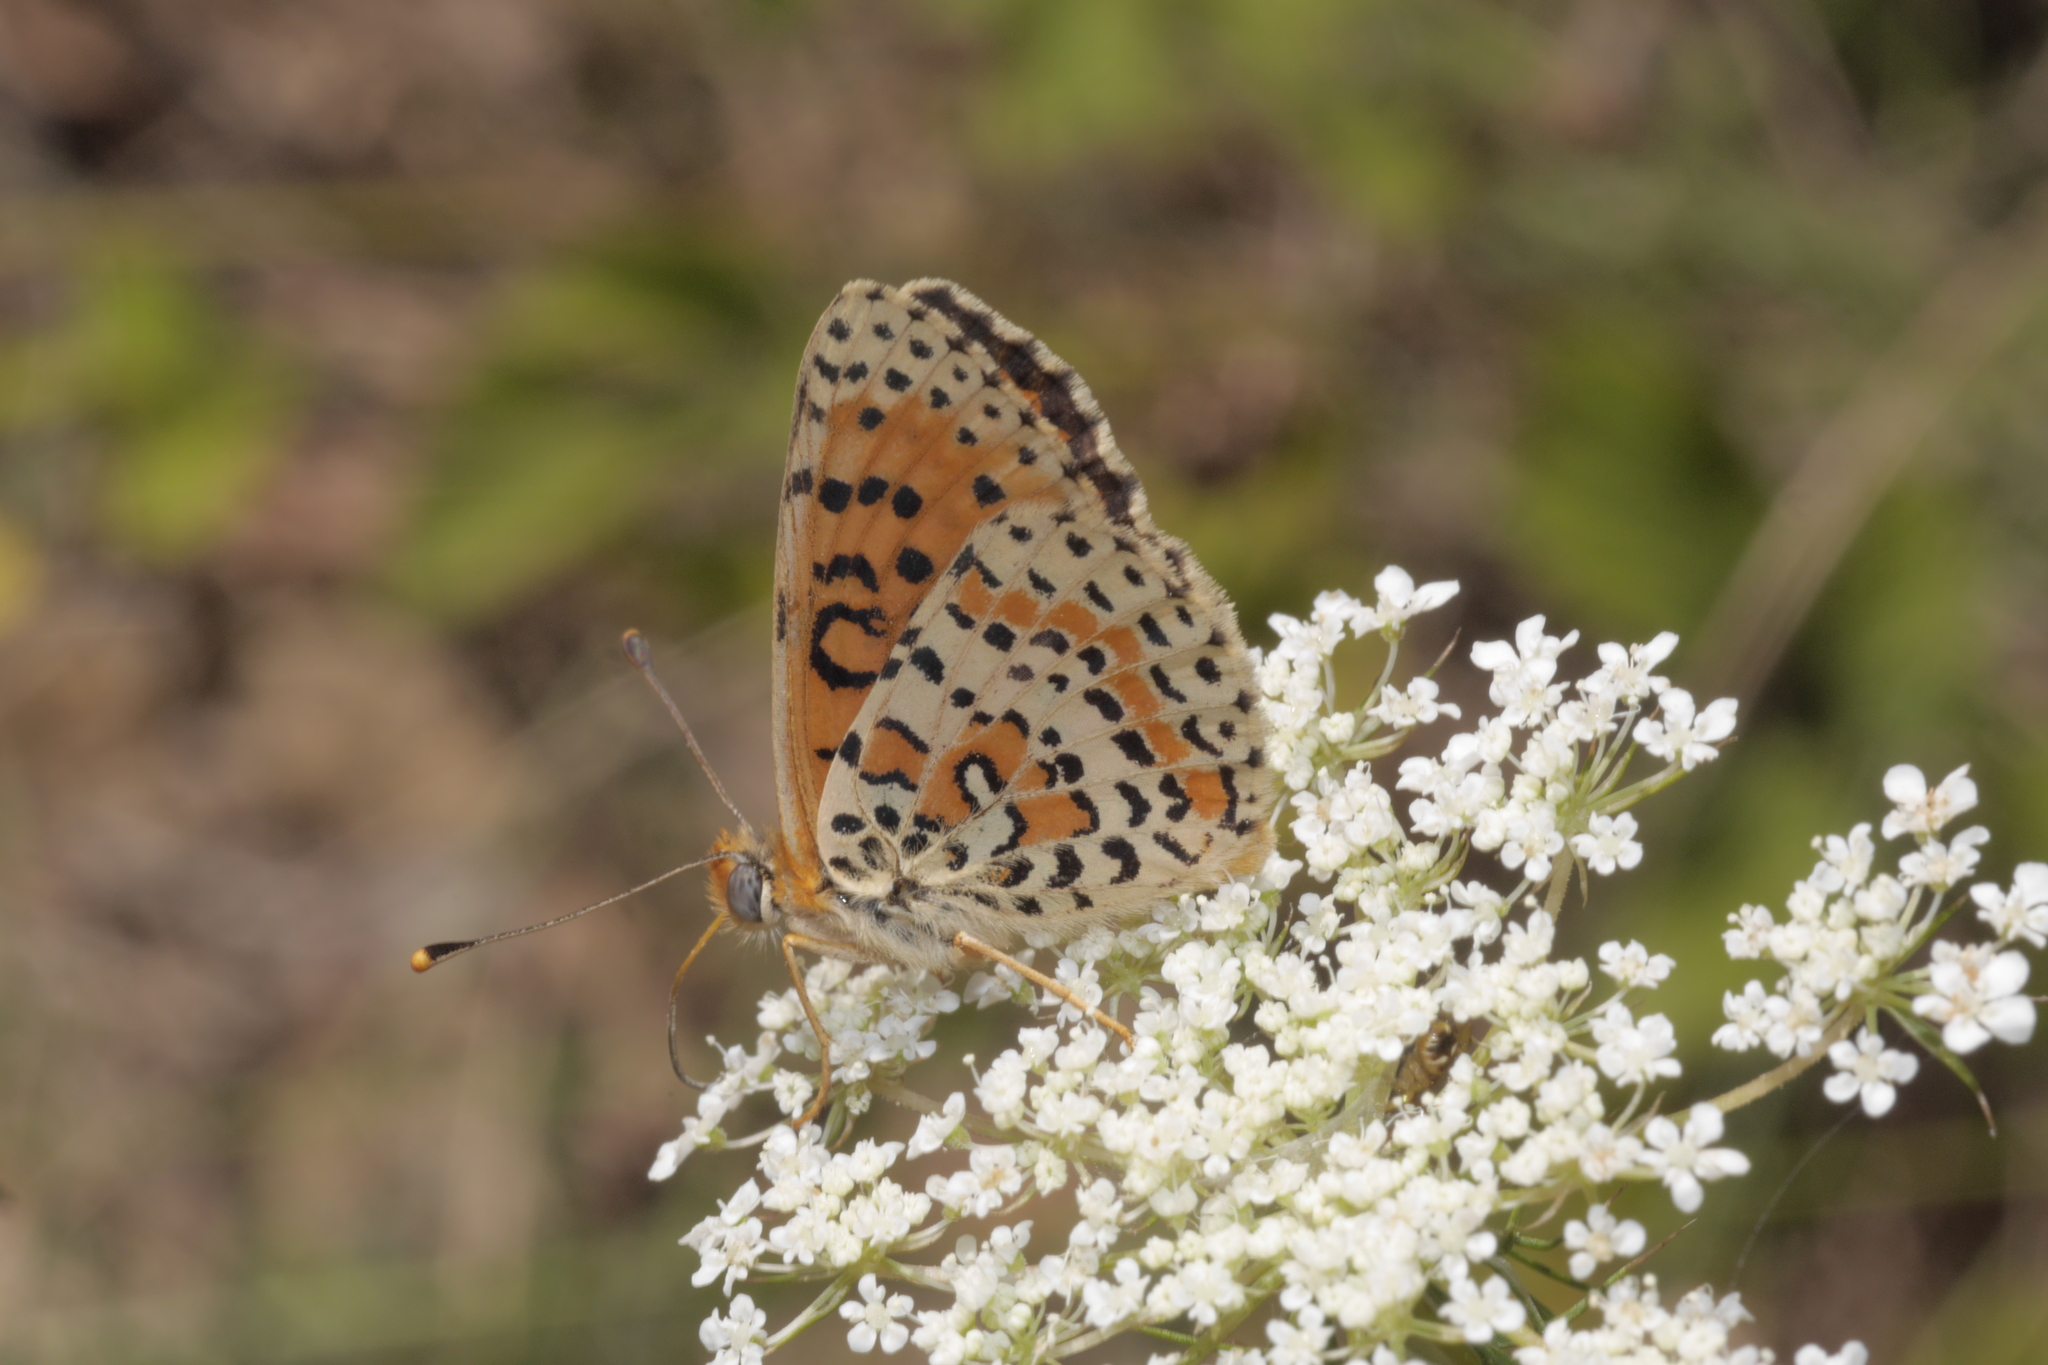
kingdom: Animalia
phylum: Arthropoda
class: Insecta
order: Lepidoptera
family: Nymphalidae
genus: Melitaea
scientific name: Melitaea didyma
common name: Spotted fritillary
